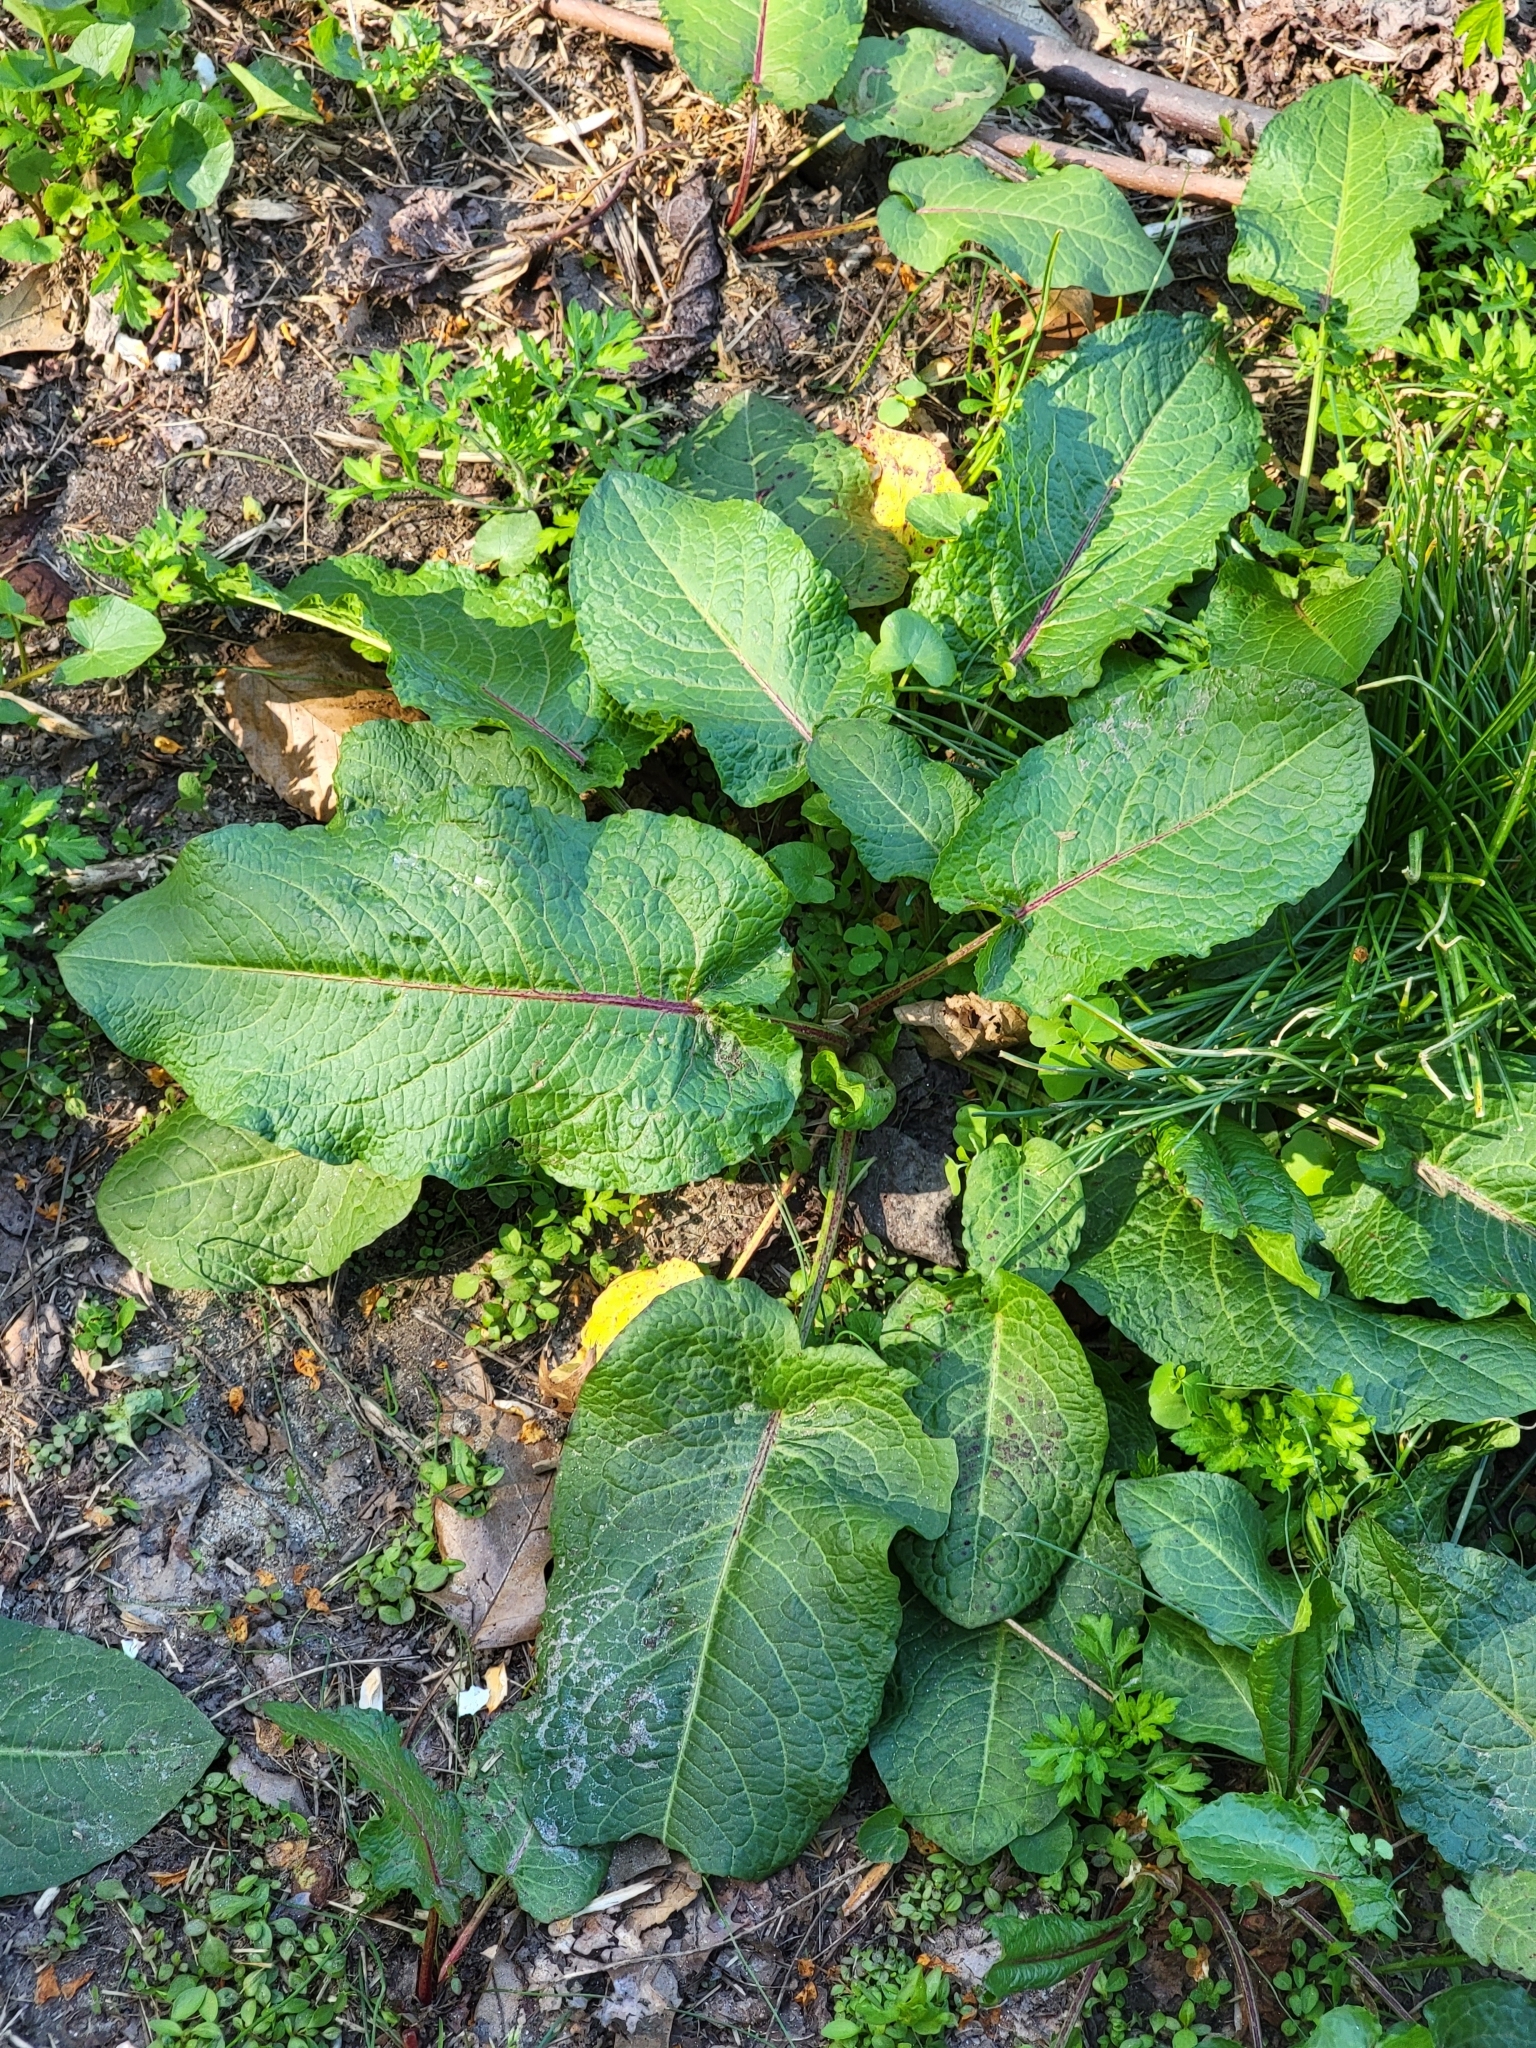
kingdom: Plantae
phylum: Tracheophyta
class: Magnoliopsida
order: Caryophyllales
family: Polygonaceae
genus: Rumex
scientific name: Rumex obtusifolius
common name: Bitter dock
